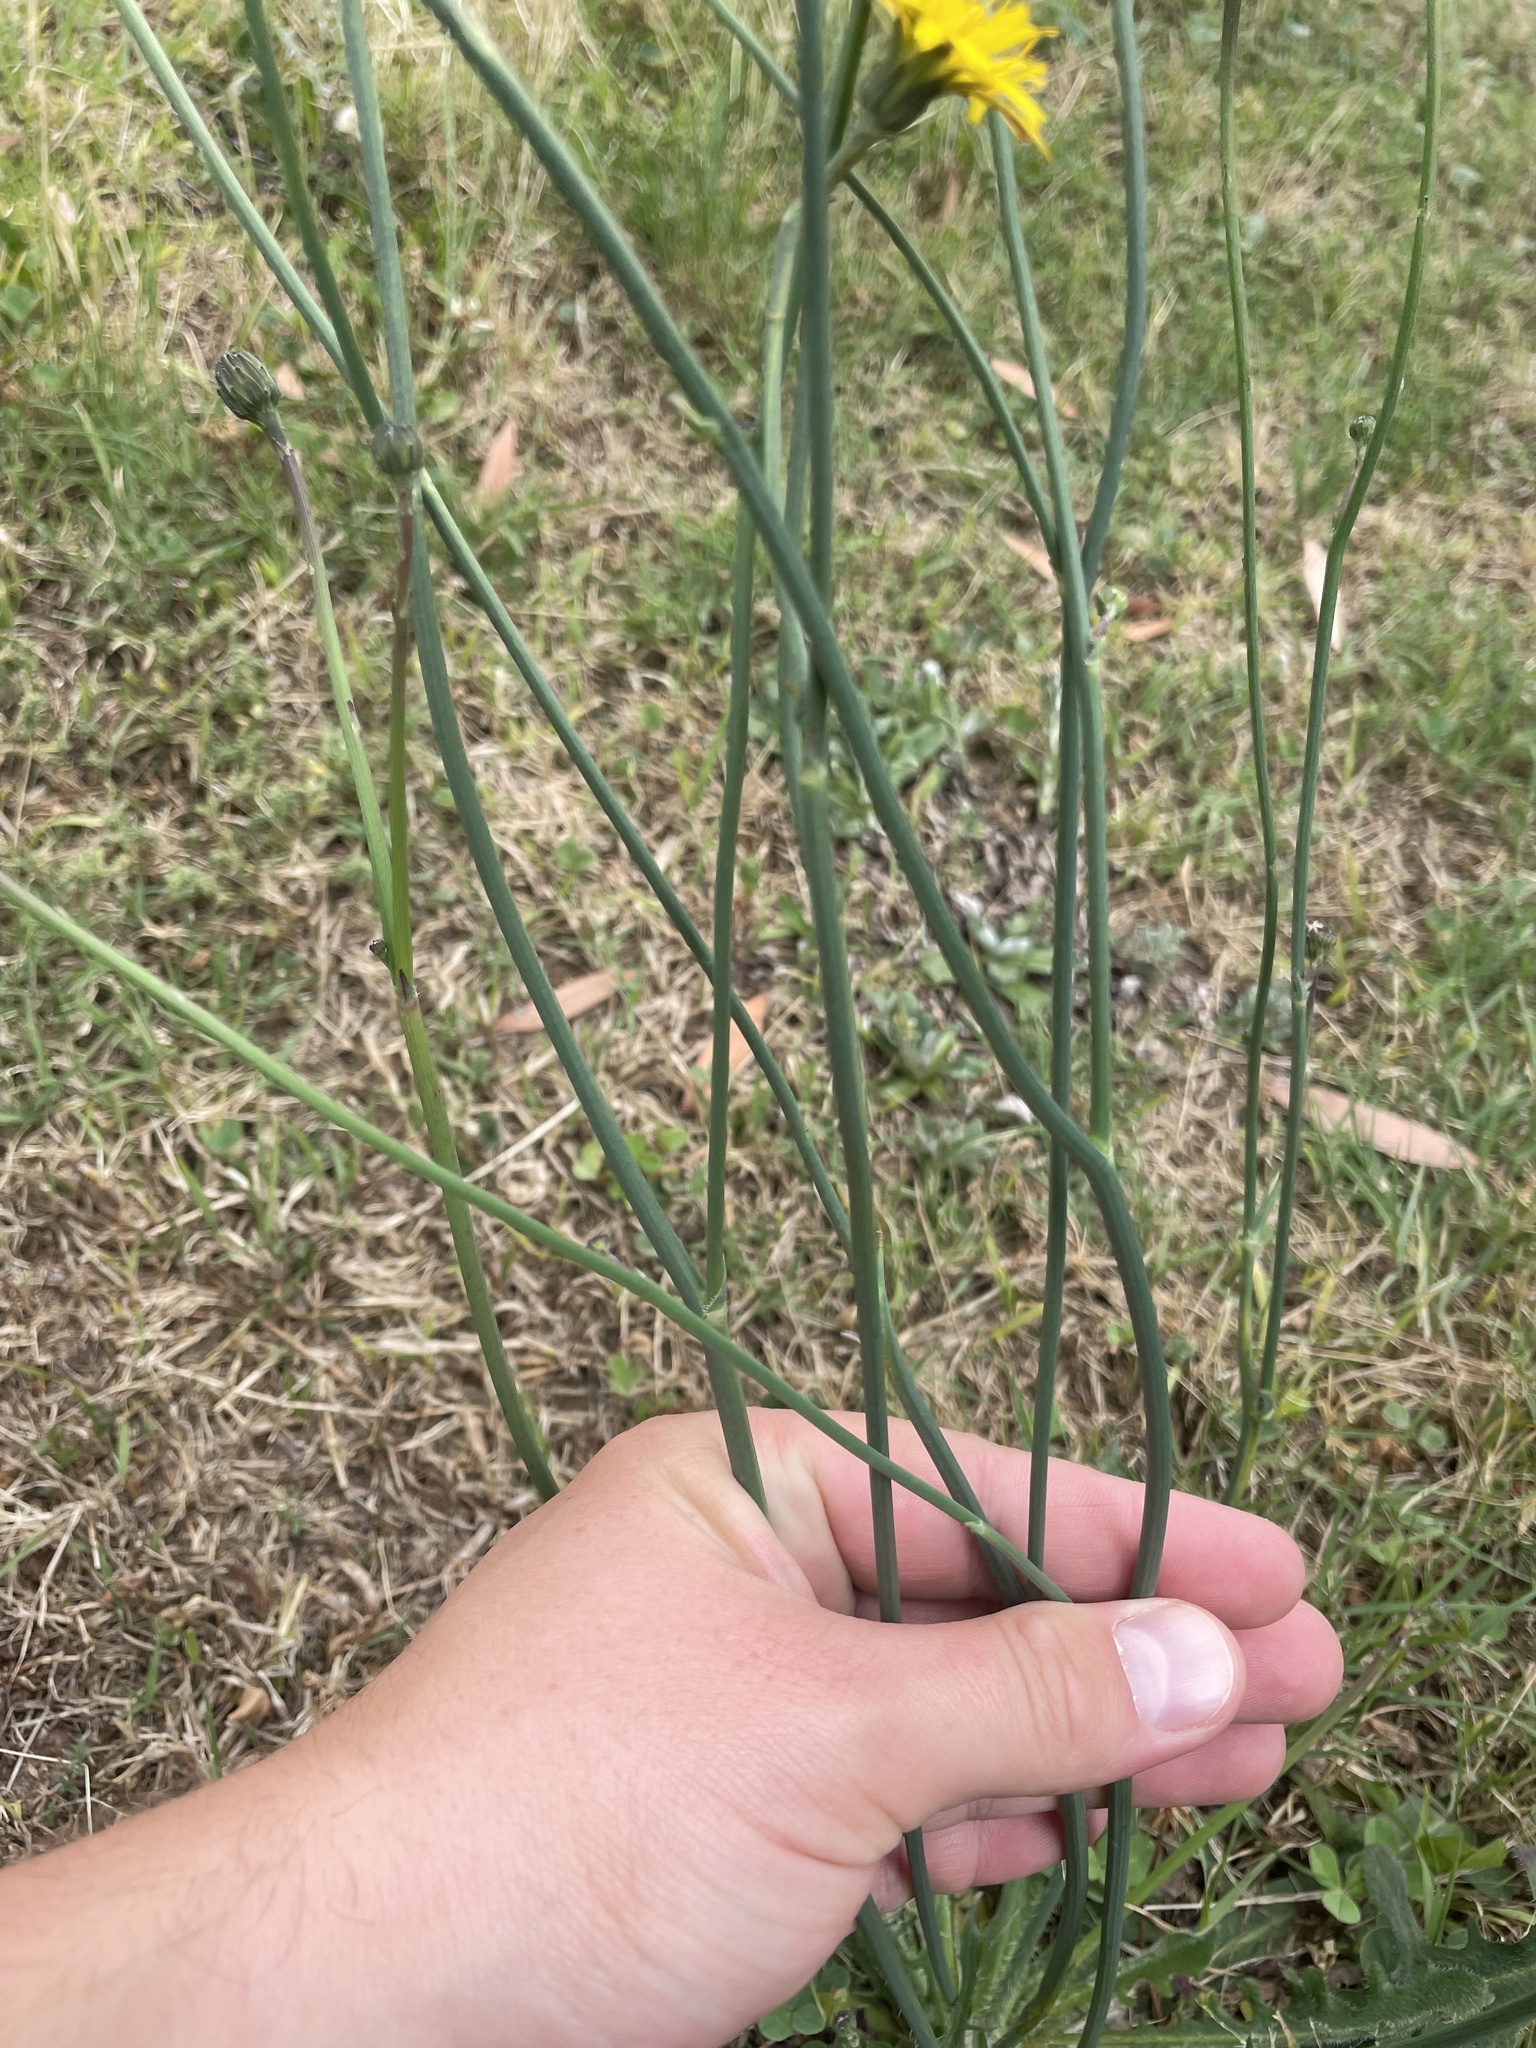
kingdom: Plantae
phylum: Tracheophyta
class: Magnoliopsida
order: Asterales
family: Asteraceae
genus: Hypochaeris
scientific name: Hypochaeris radicata
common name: Flatweed
